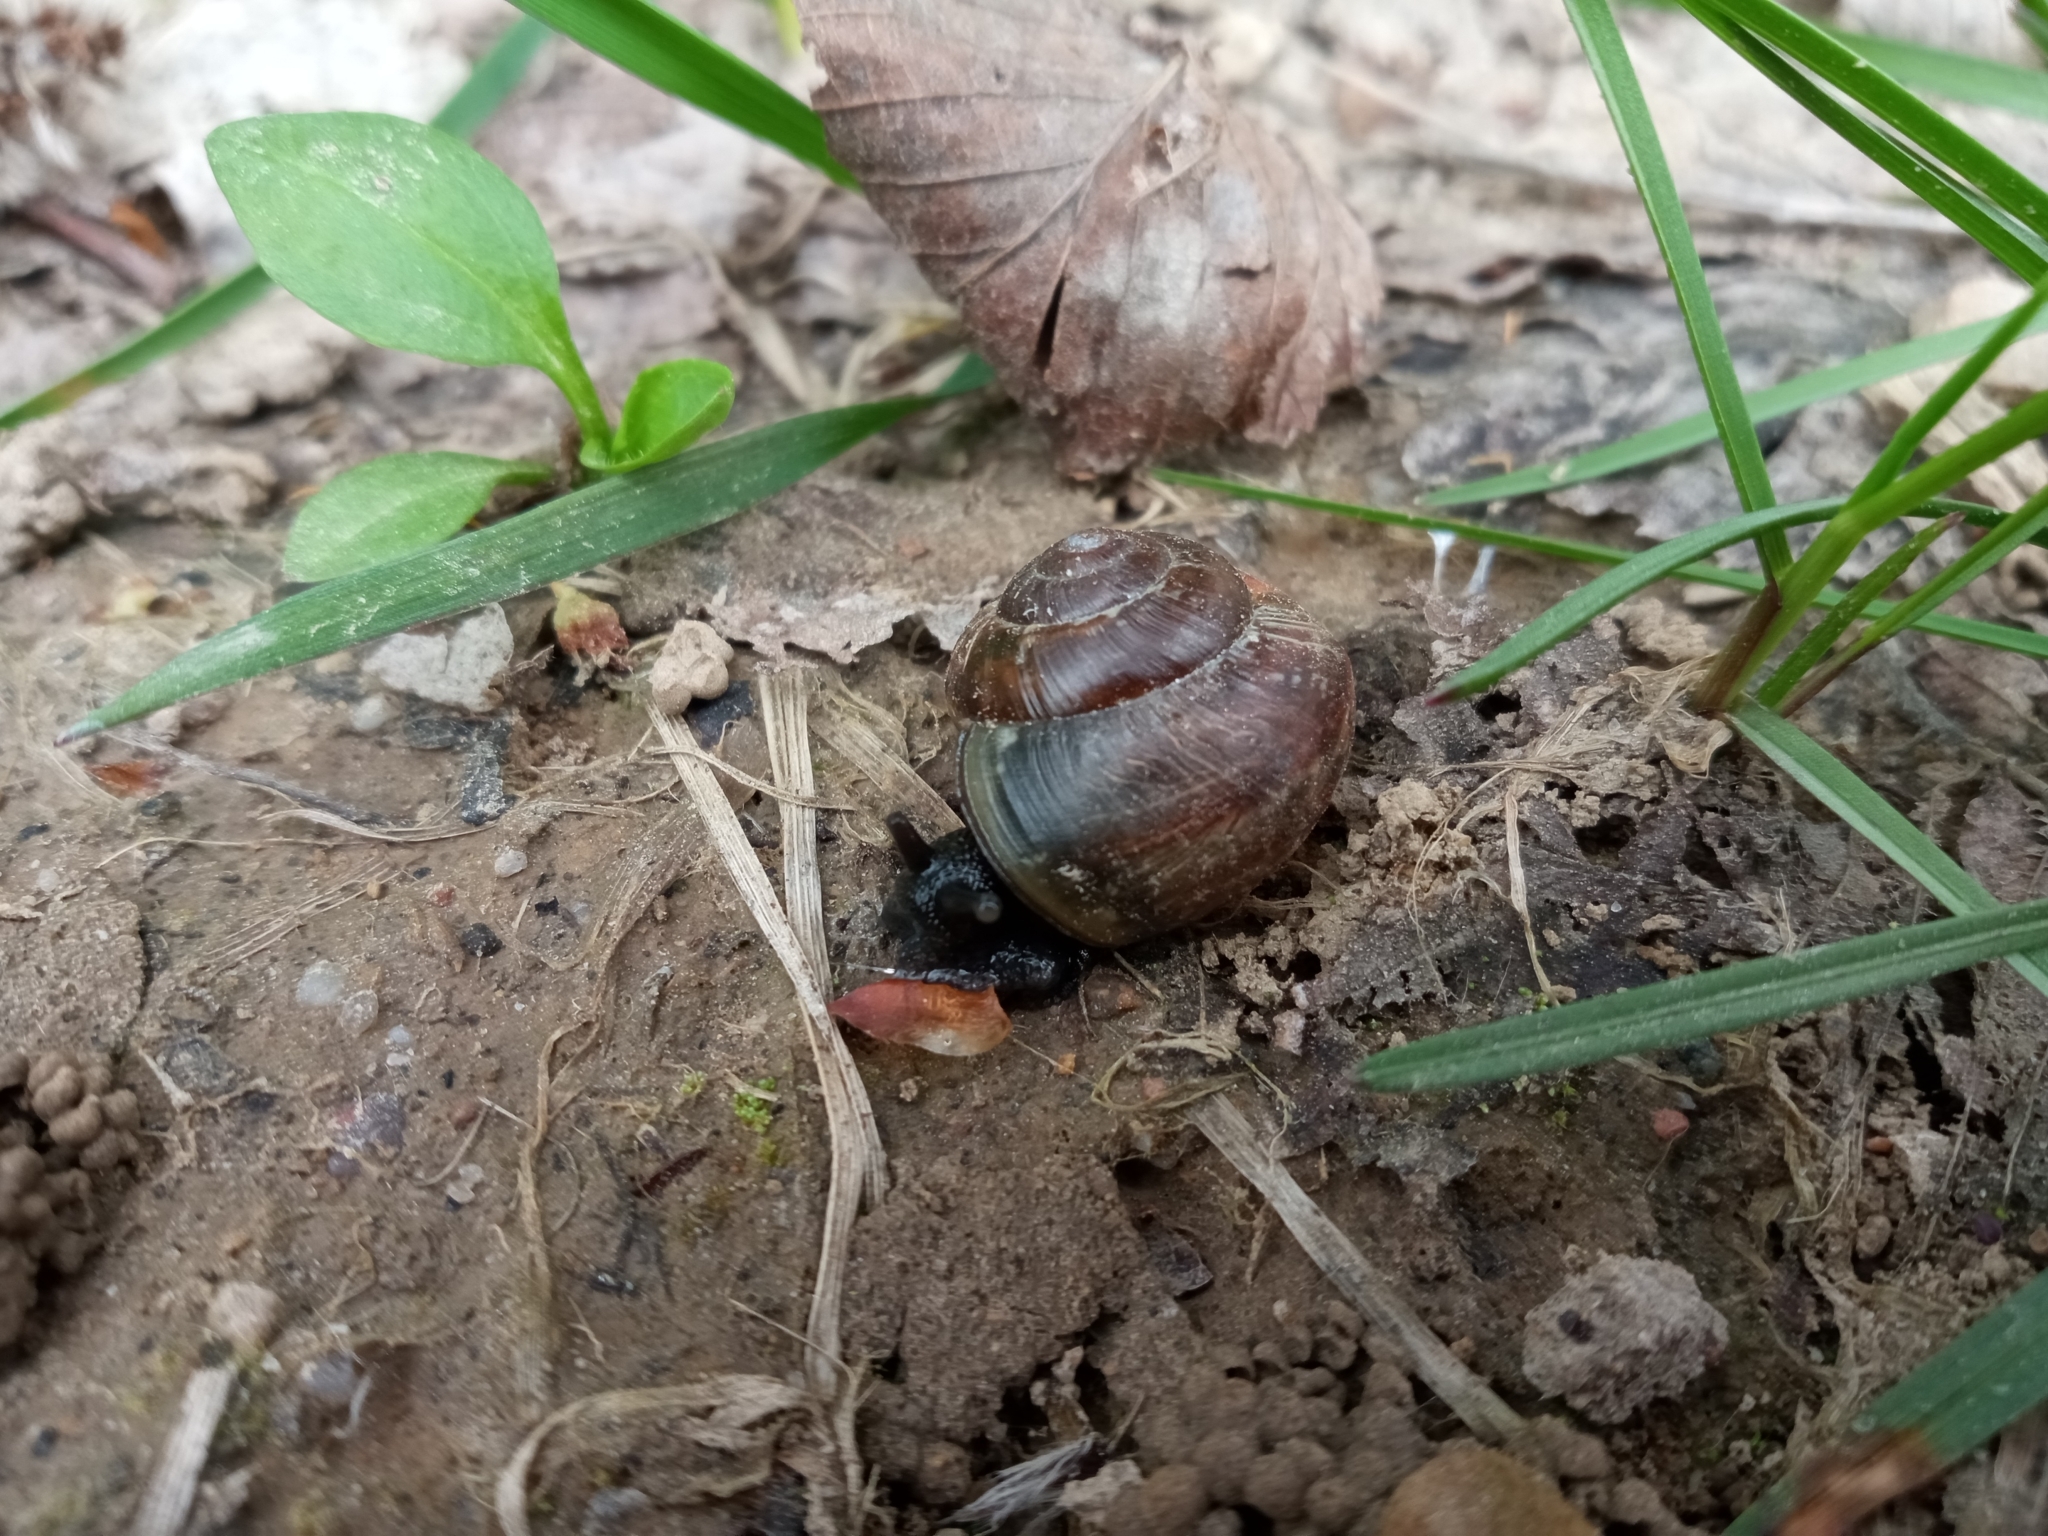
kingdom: Animalia
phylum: Mollusca
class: Gastropoda
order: Stylommatophora
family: Helicidae
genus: Arianta
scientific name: Arianta arbustorum
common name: Copse snail
